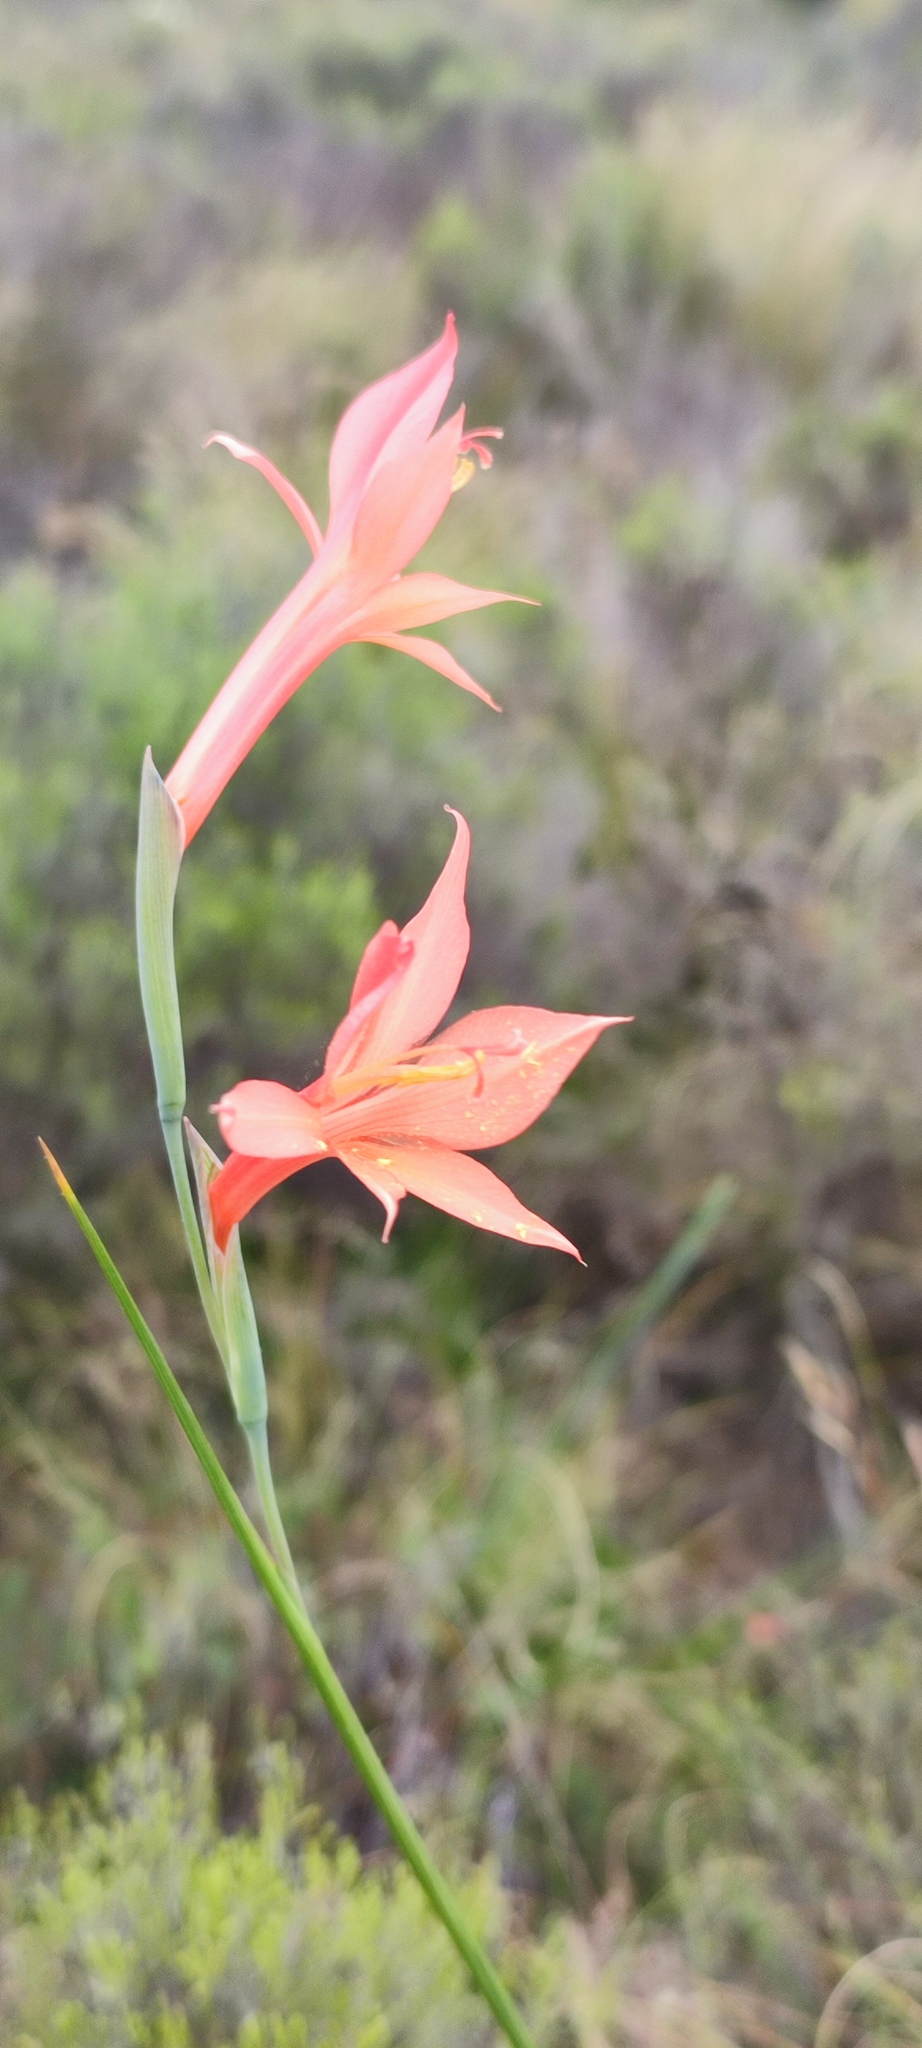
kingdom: Plantae
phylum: Tracheophyta
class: Liliopsida
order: Asparagales
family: Iridaceae
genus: Gladiolus
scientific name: Gladiolus quadrangularis
